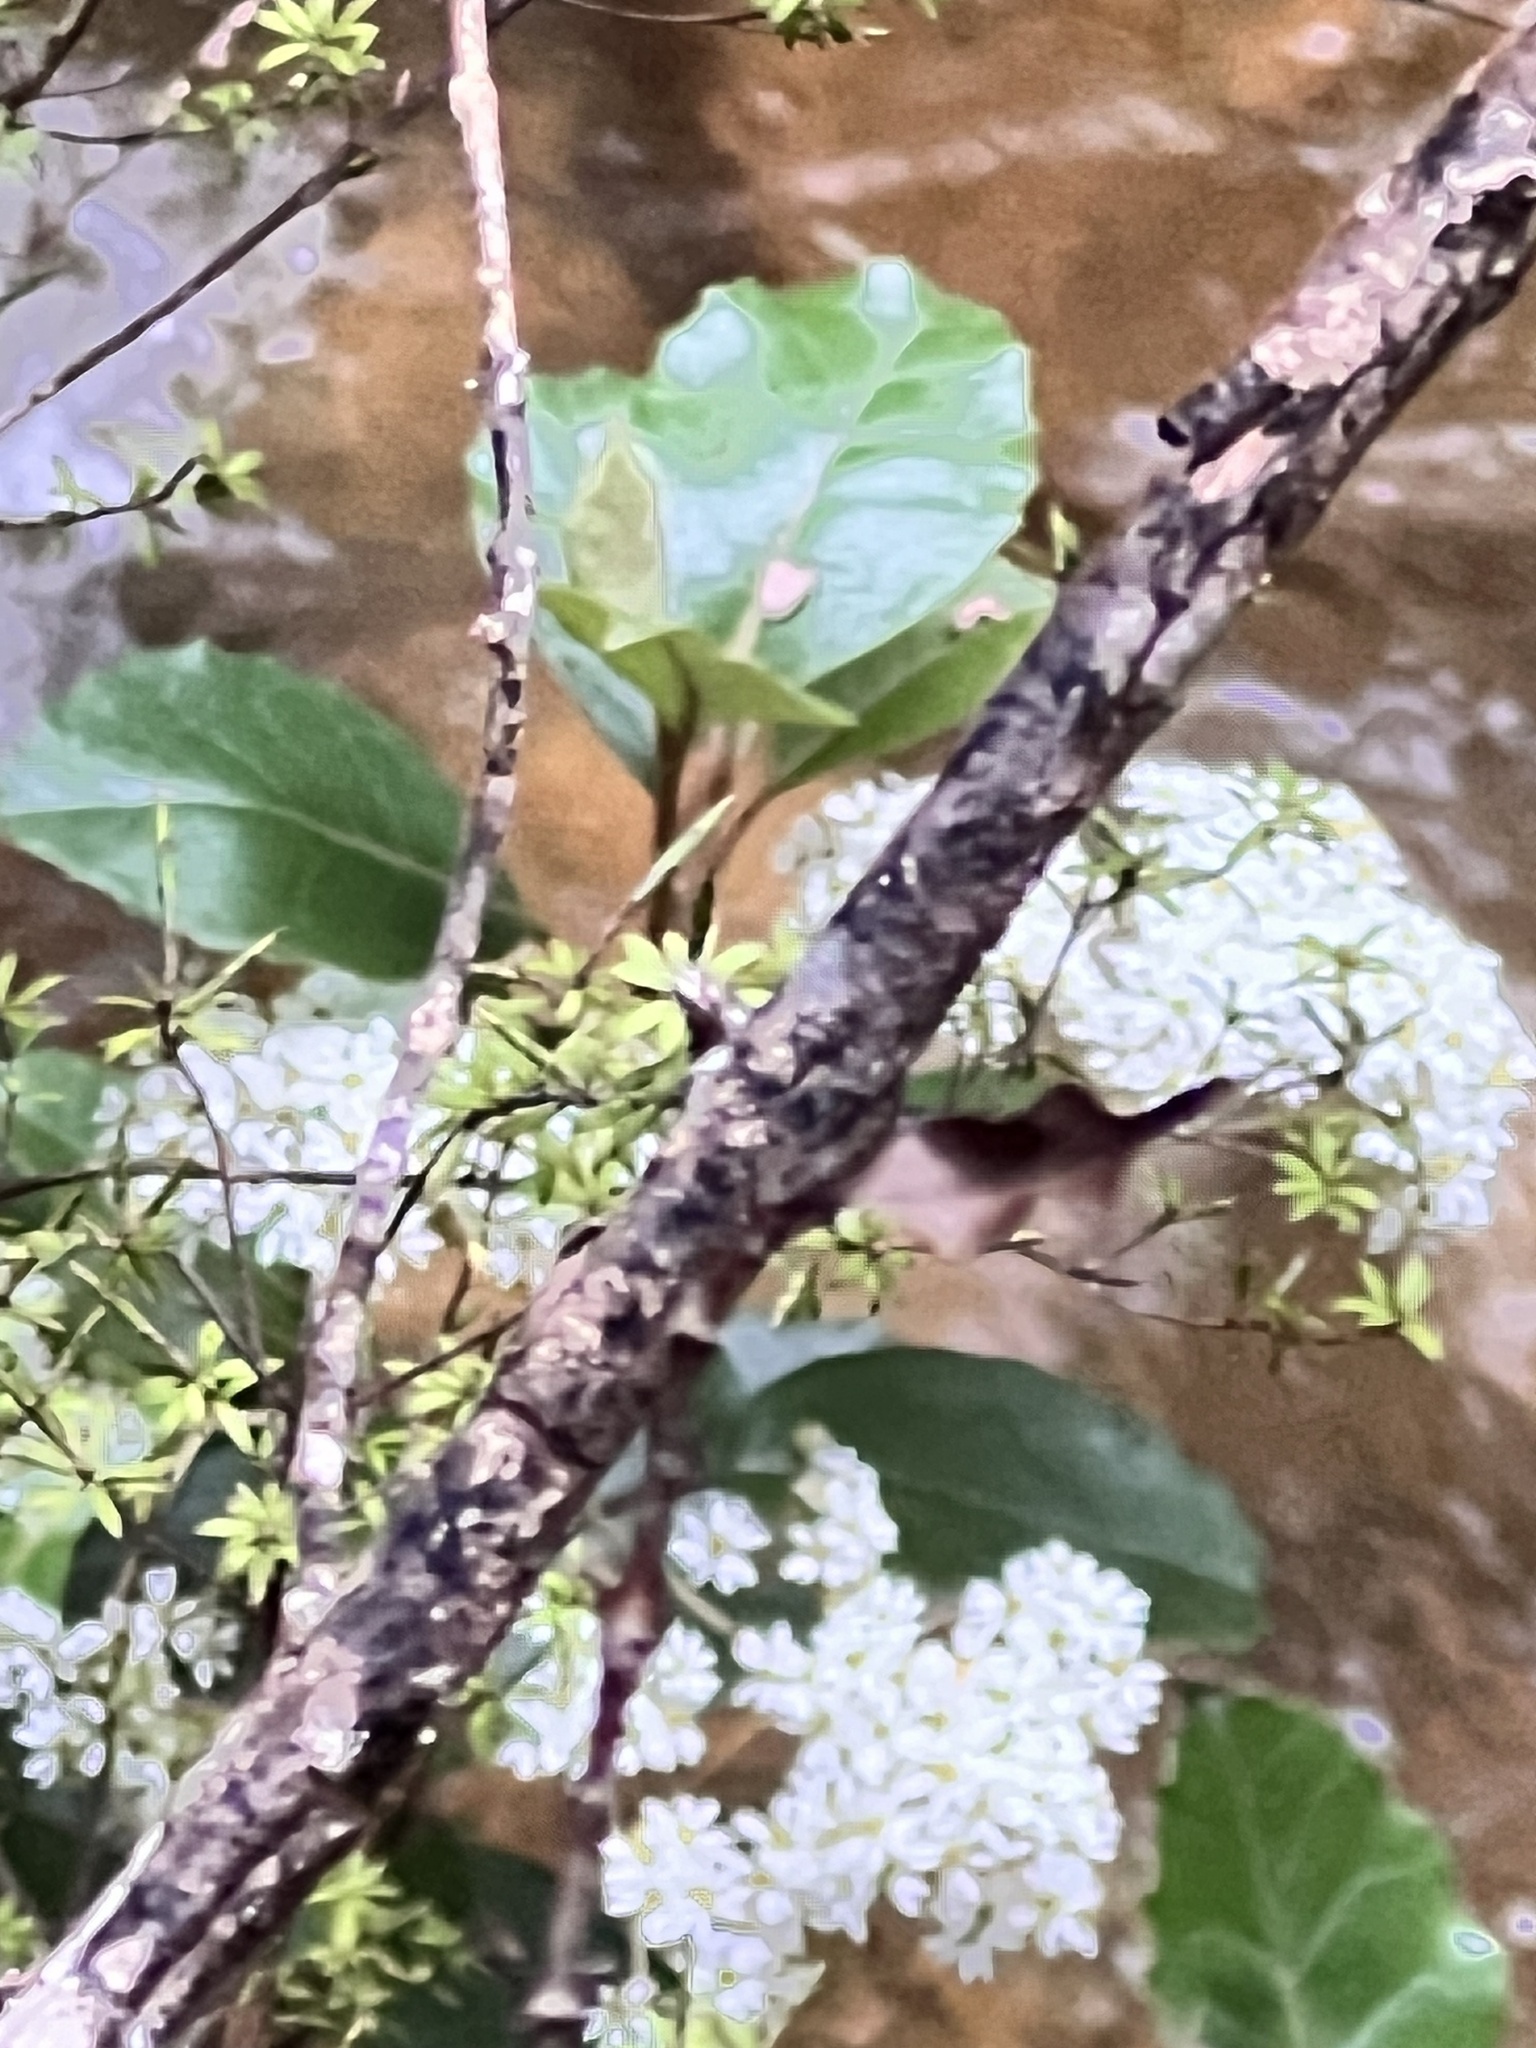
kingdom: Plantae
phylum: Tracheophyta
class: Magnoliopsida
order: Asterales
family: Asteraceae
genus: Olearia
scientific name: Olearia arborescens
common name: Glossy tree daisy
